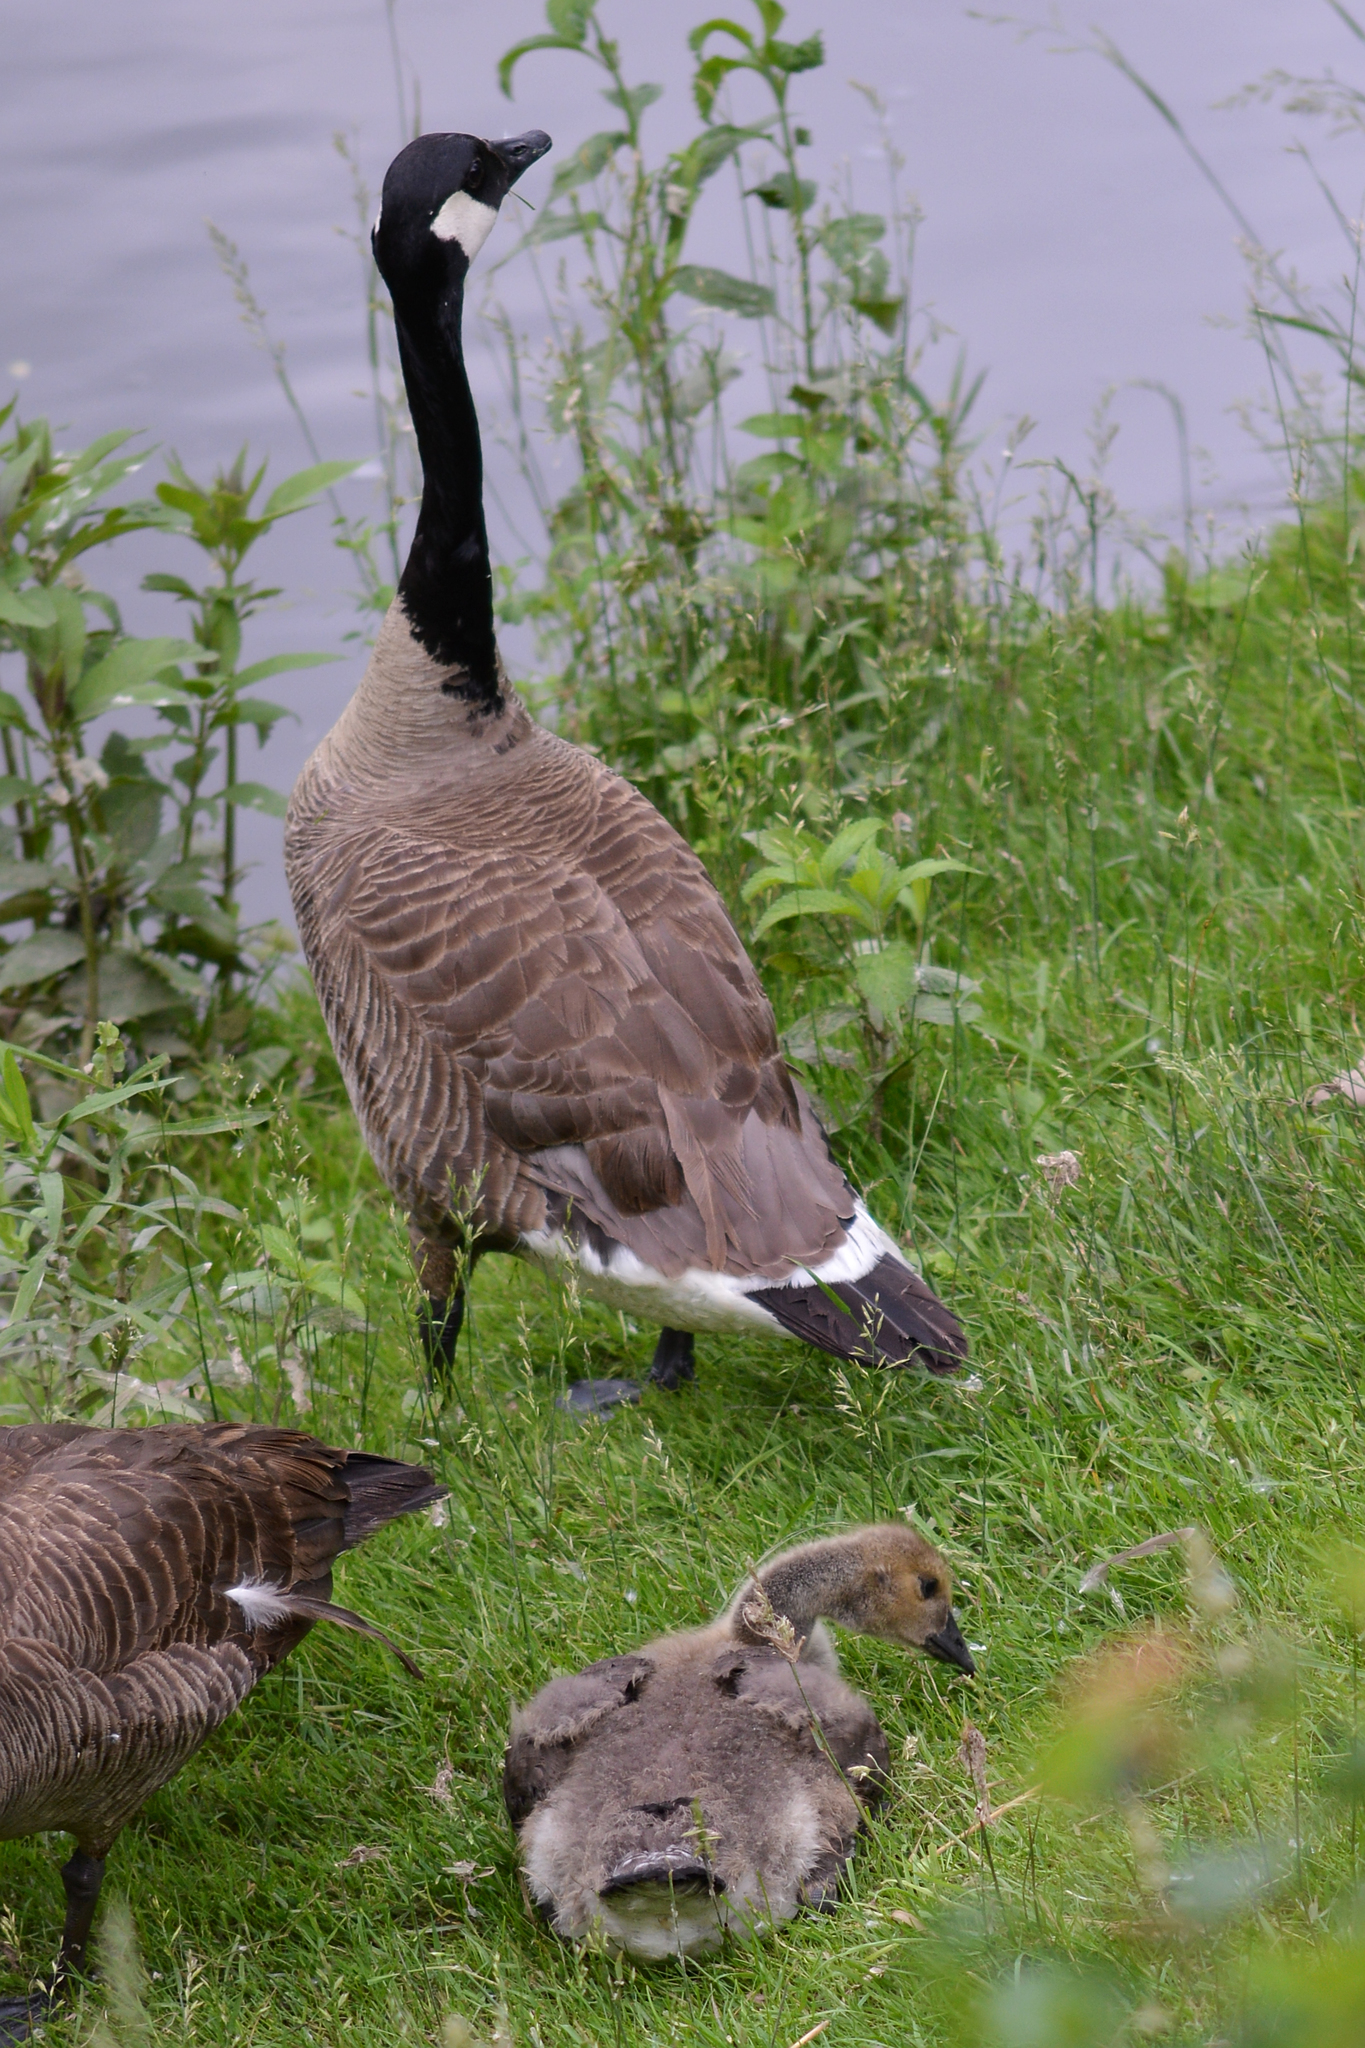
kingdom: Animalia
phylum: Chordata
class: Aves
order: Anseriformes
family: Anatidae
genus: Branta
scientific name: Branta canadensis
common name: Canada goose
